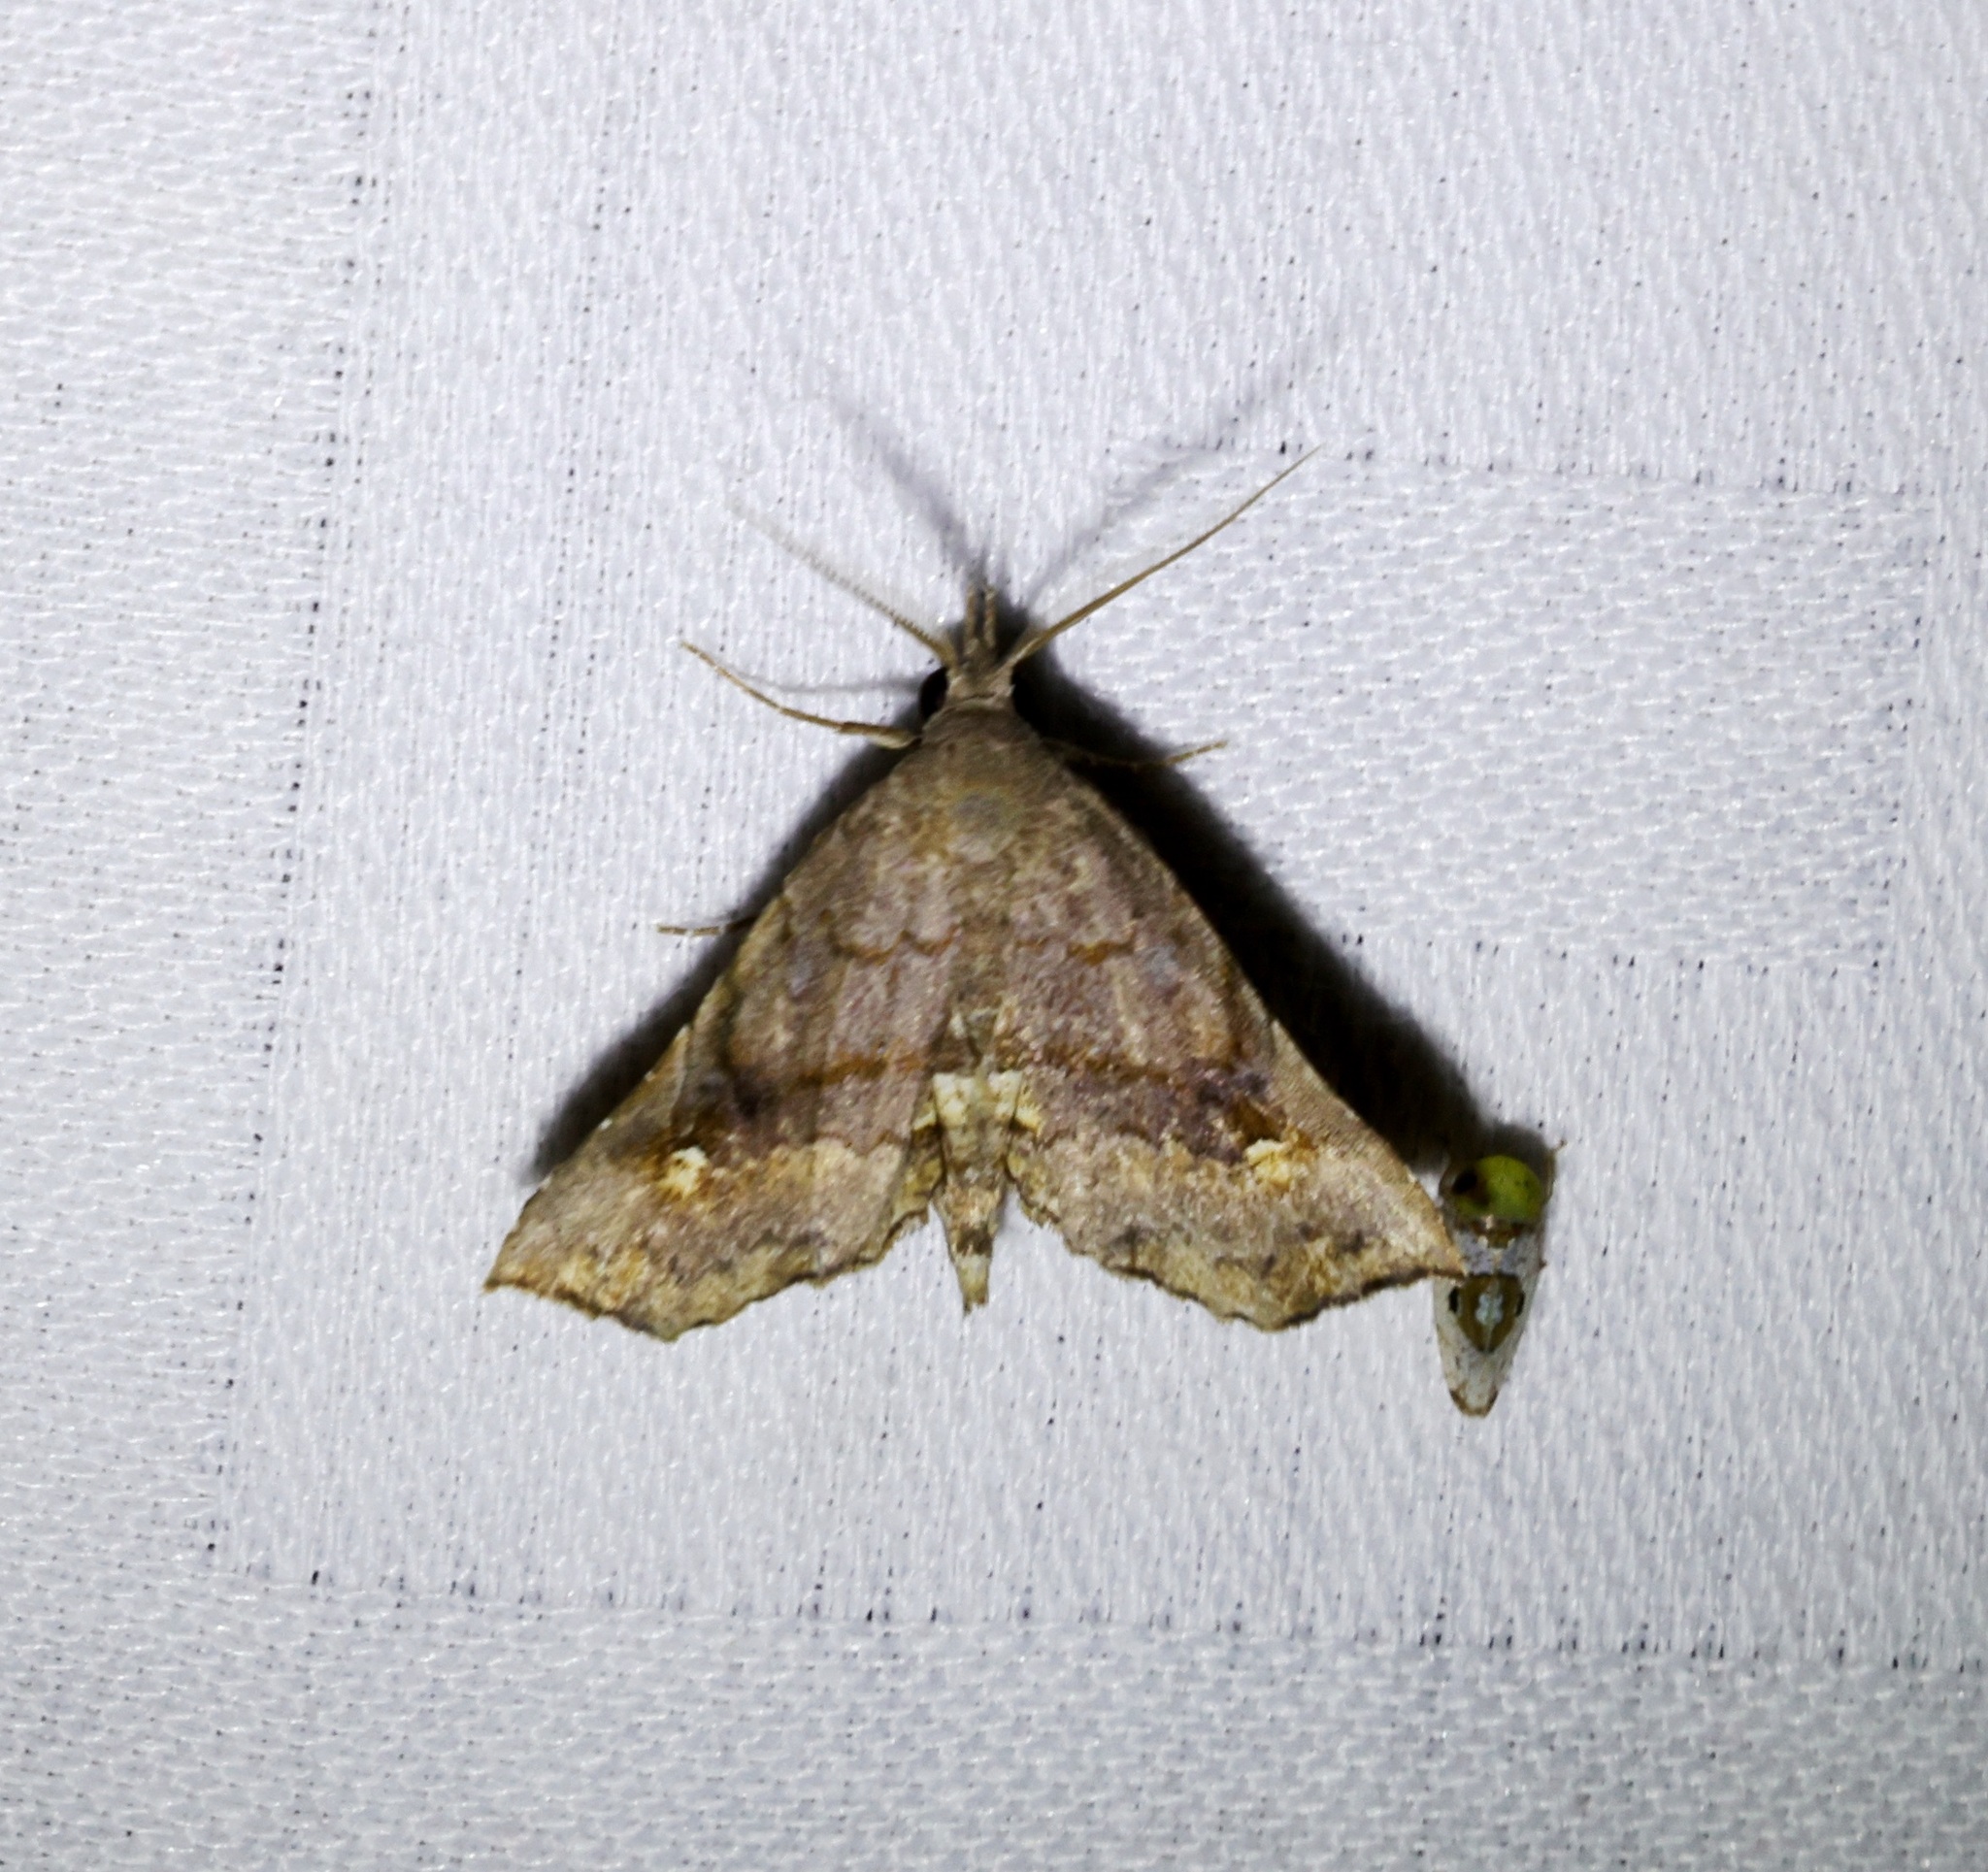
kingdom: Animalia
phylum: Arthropoda
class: Insecta
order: Lepidoptera
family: Erebidae
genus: Throana
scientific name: Throana pectinifer
